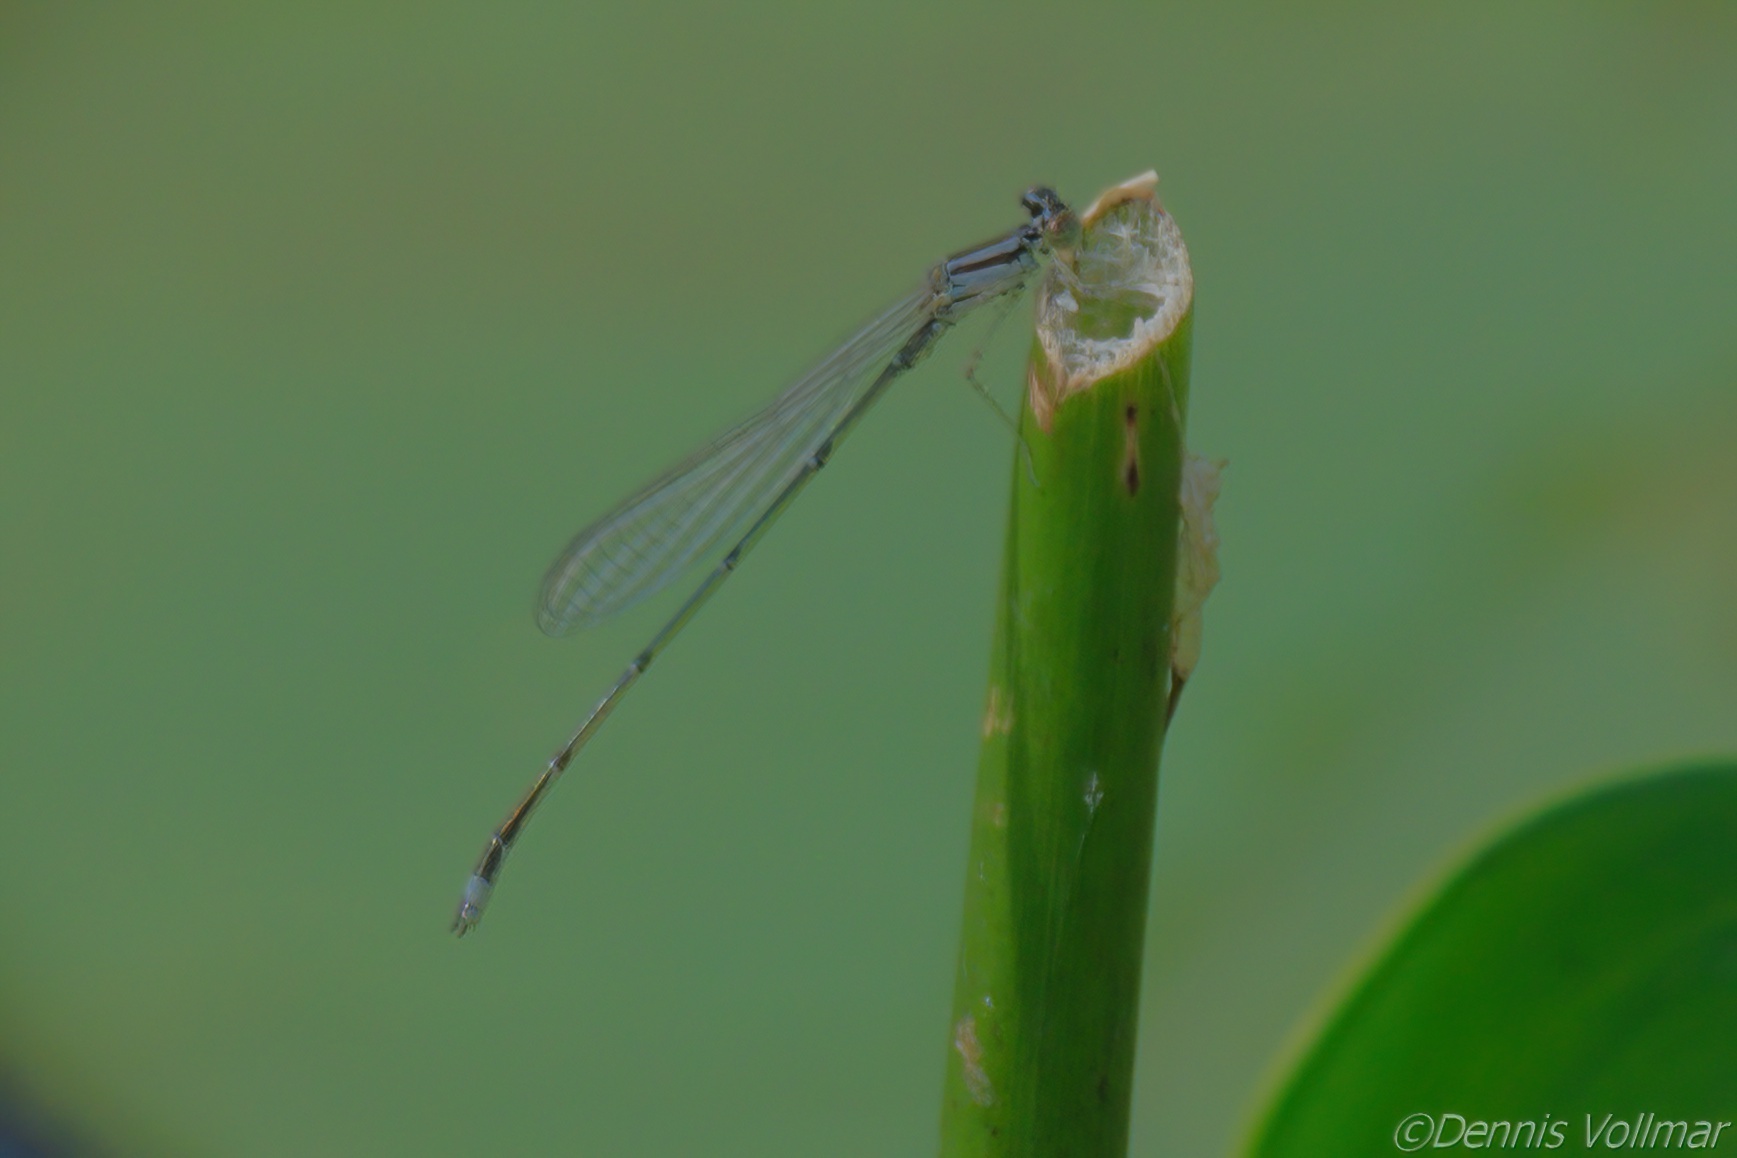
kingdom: Animalia
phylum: Arthropoda
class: Insecta
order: Odonata
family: Coenagrionidae
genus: Enallagma
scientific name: Enallagma signatum
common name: Orange bluet
